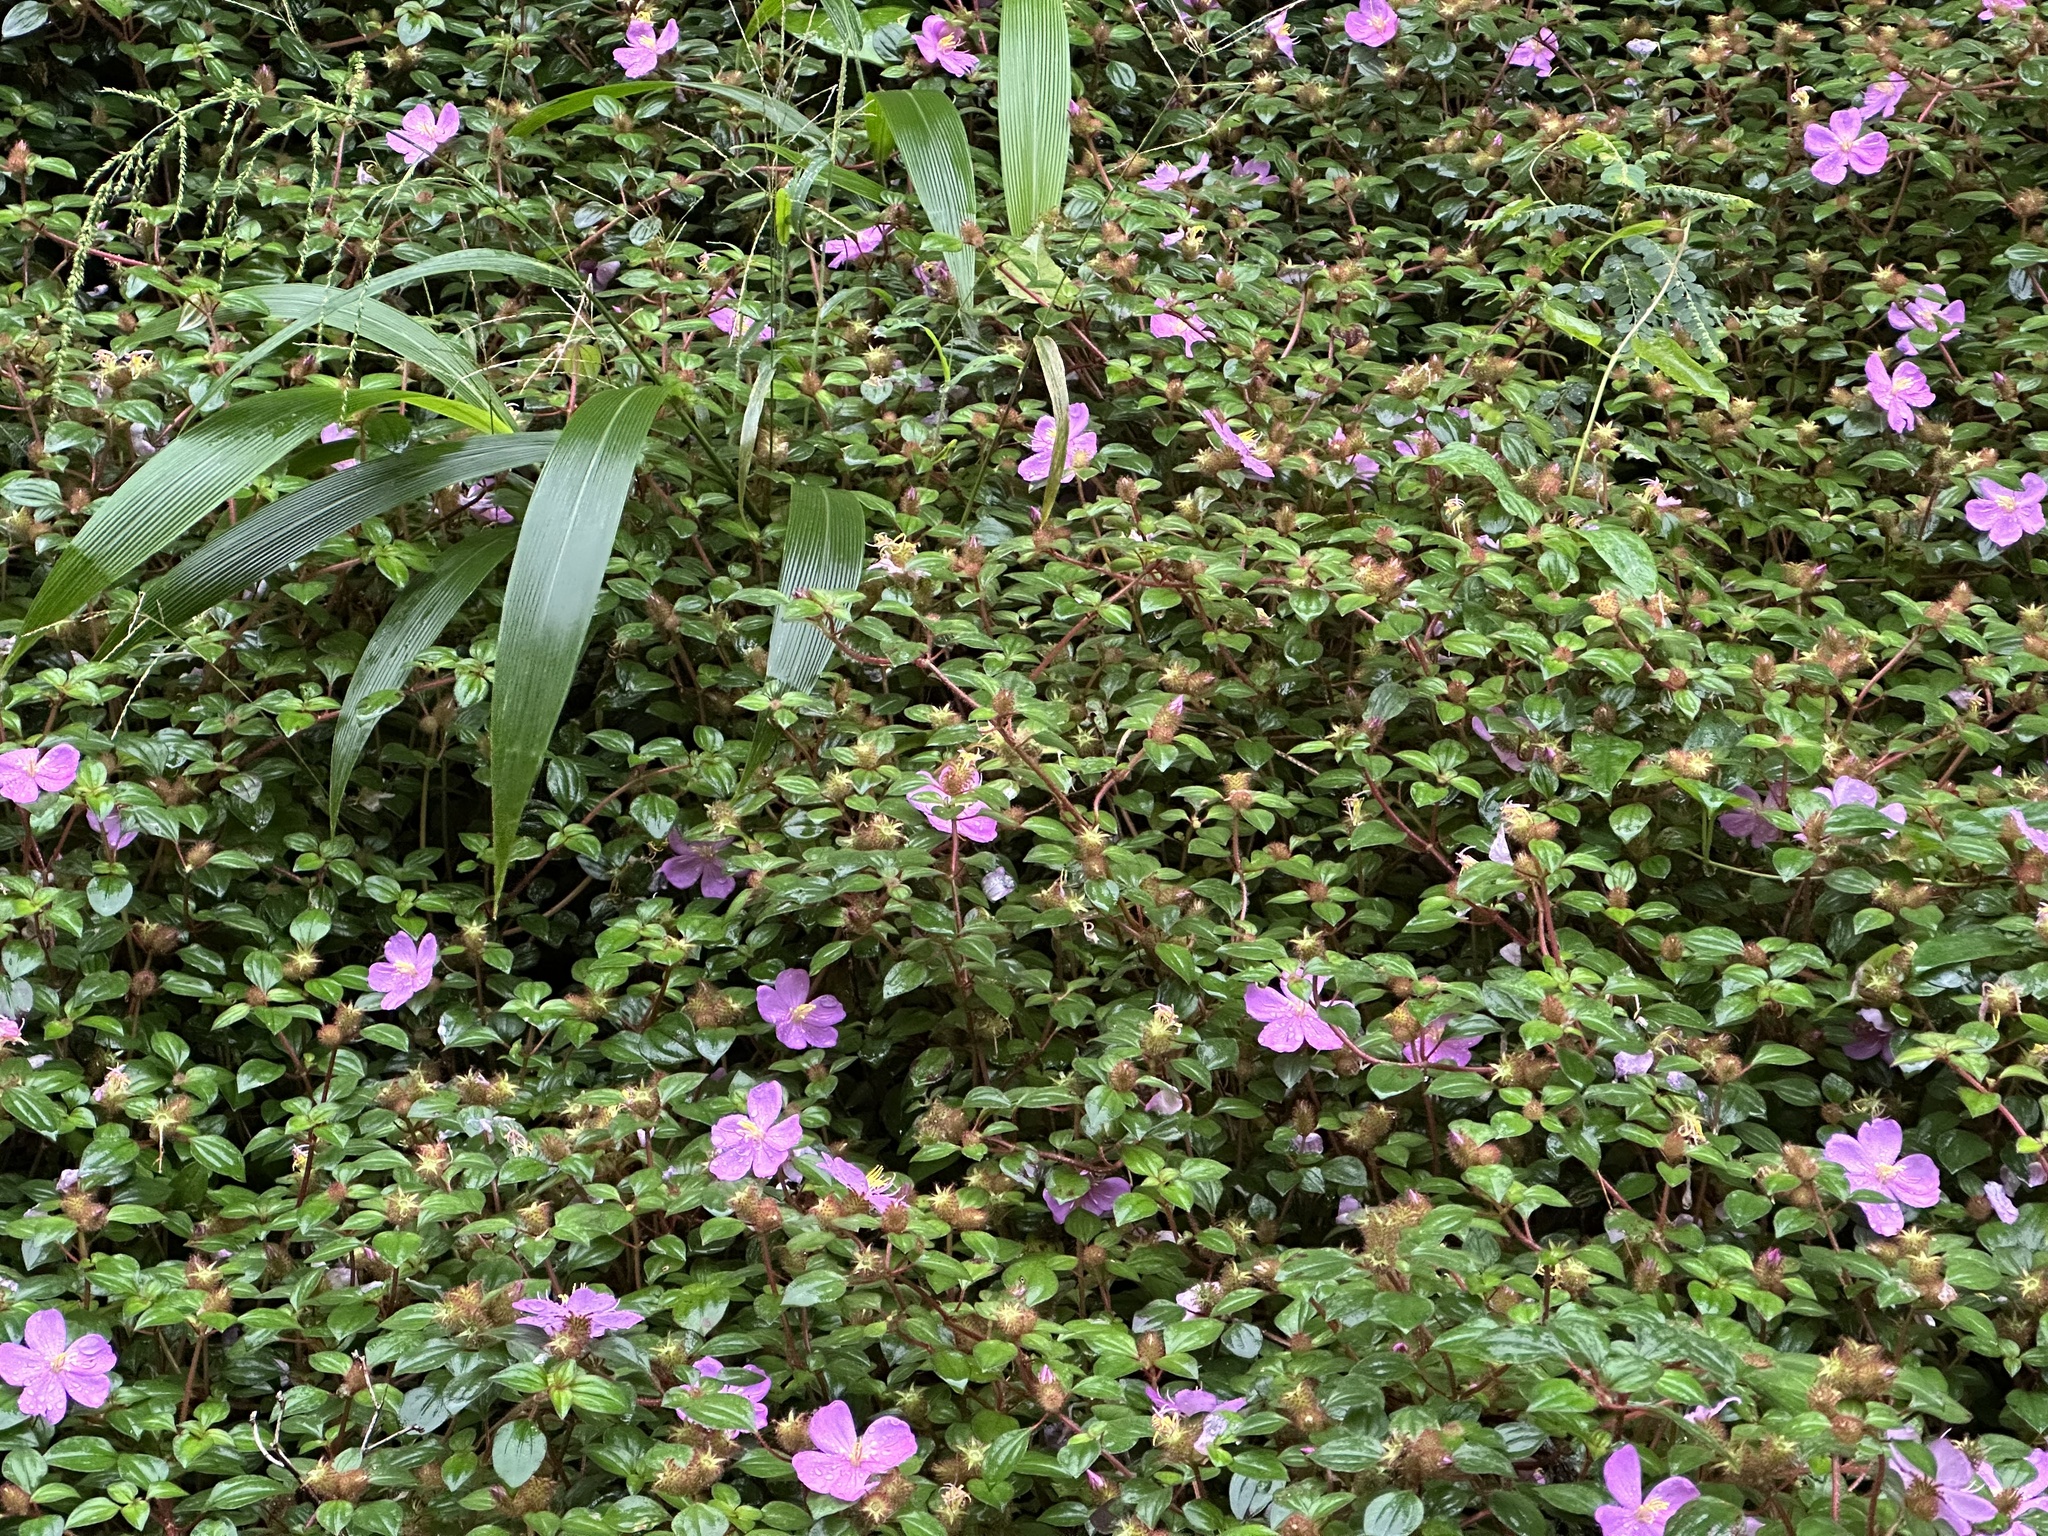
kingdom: Plantae
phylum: Tracheophyta
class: Magnoliopsida
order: Myrtales
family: Melastomataceae
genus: Heterotis
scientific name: Heterotis rotundifolia
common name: Pinklady
